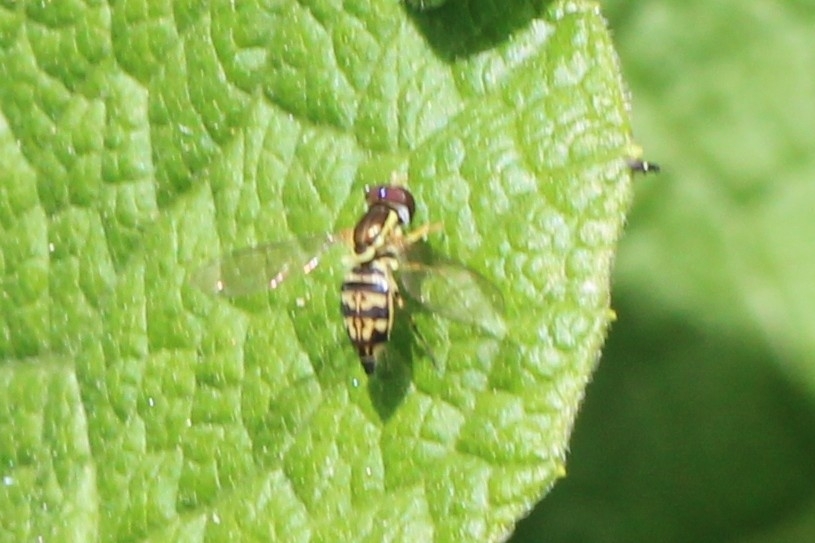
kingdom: Animalia
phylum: Arthropoda
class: Insecta
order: Diptera
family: Syrphidae
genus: Toxomerus
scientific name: Toxomerus geminatus
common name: Eastern calligrapher
